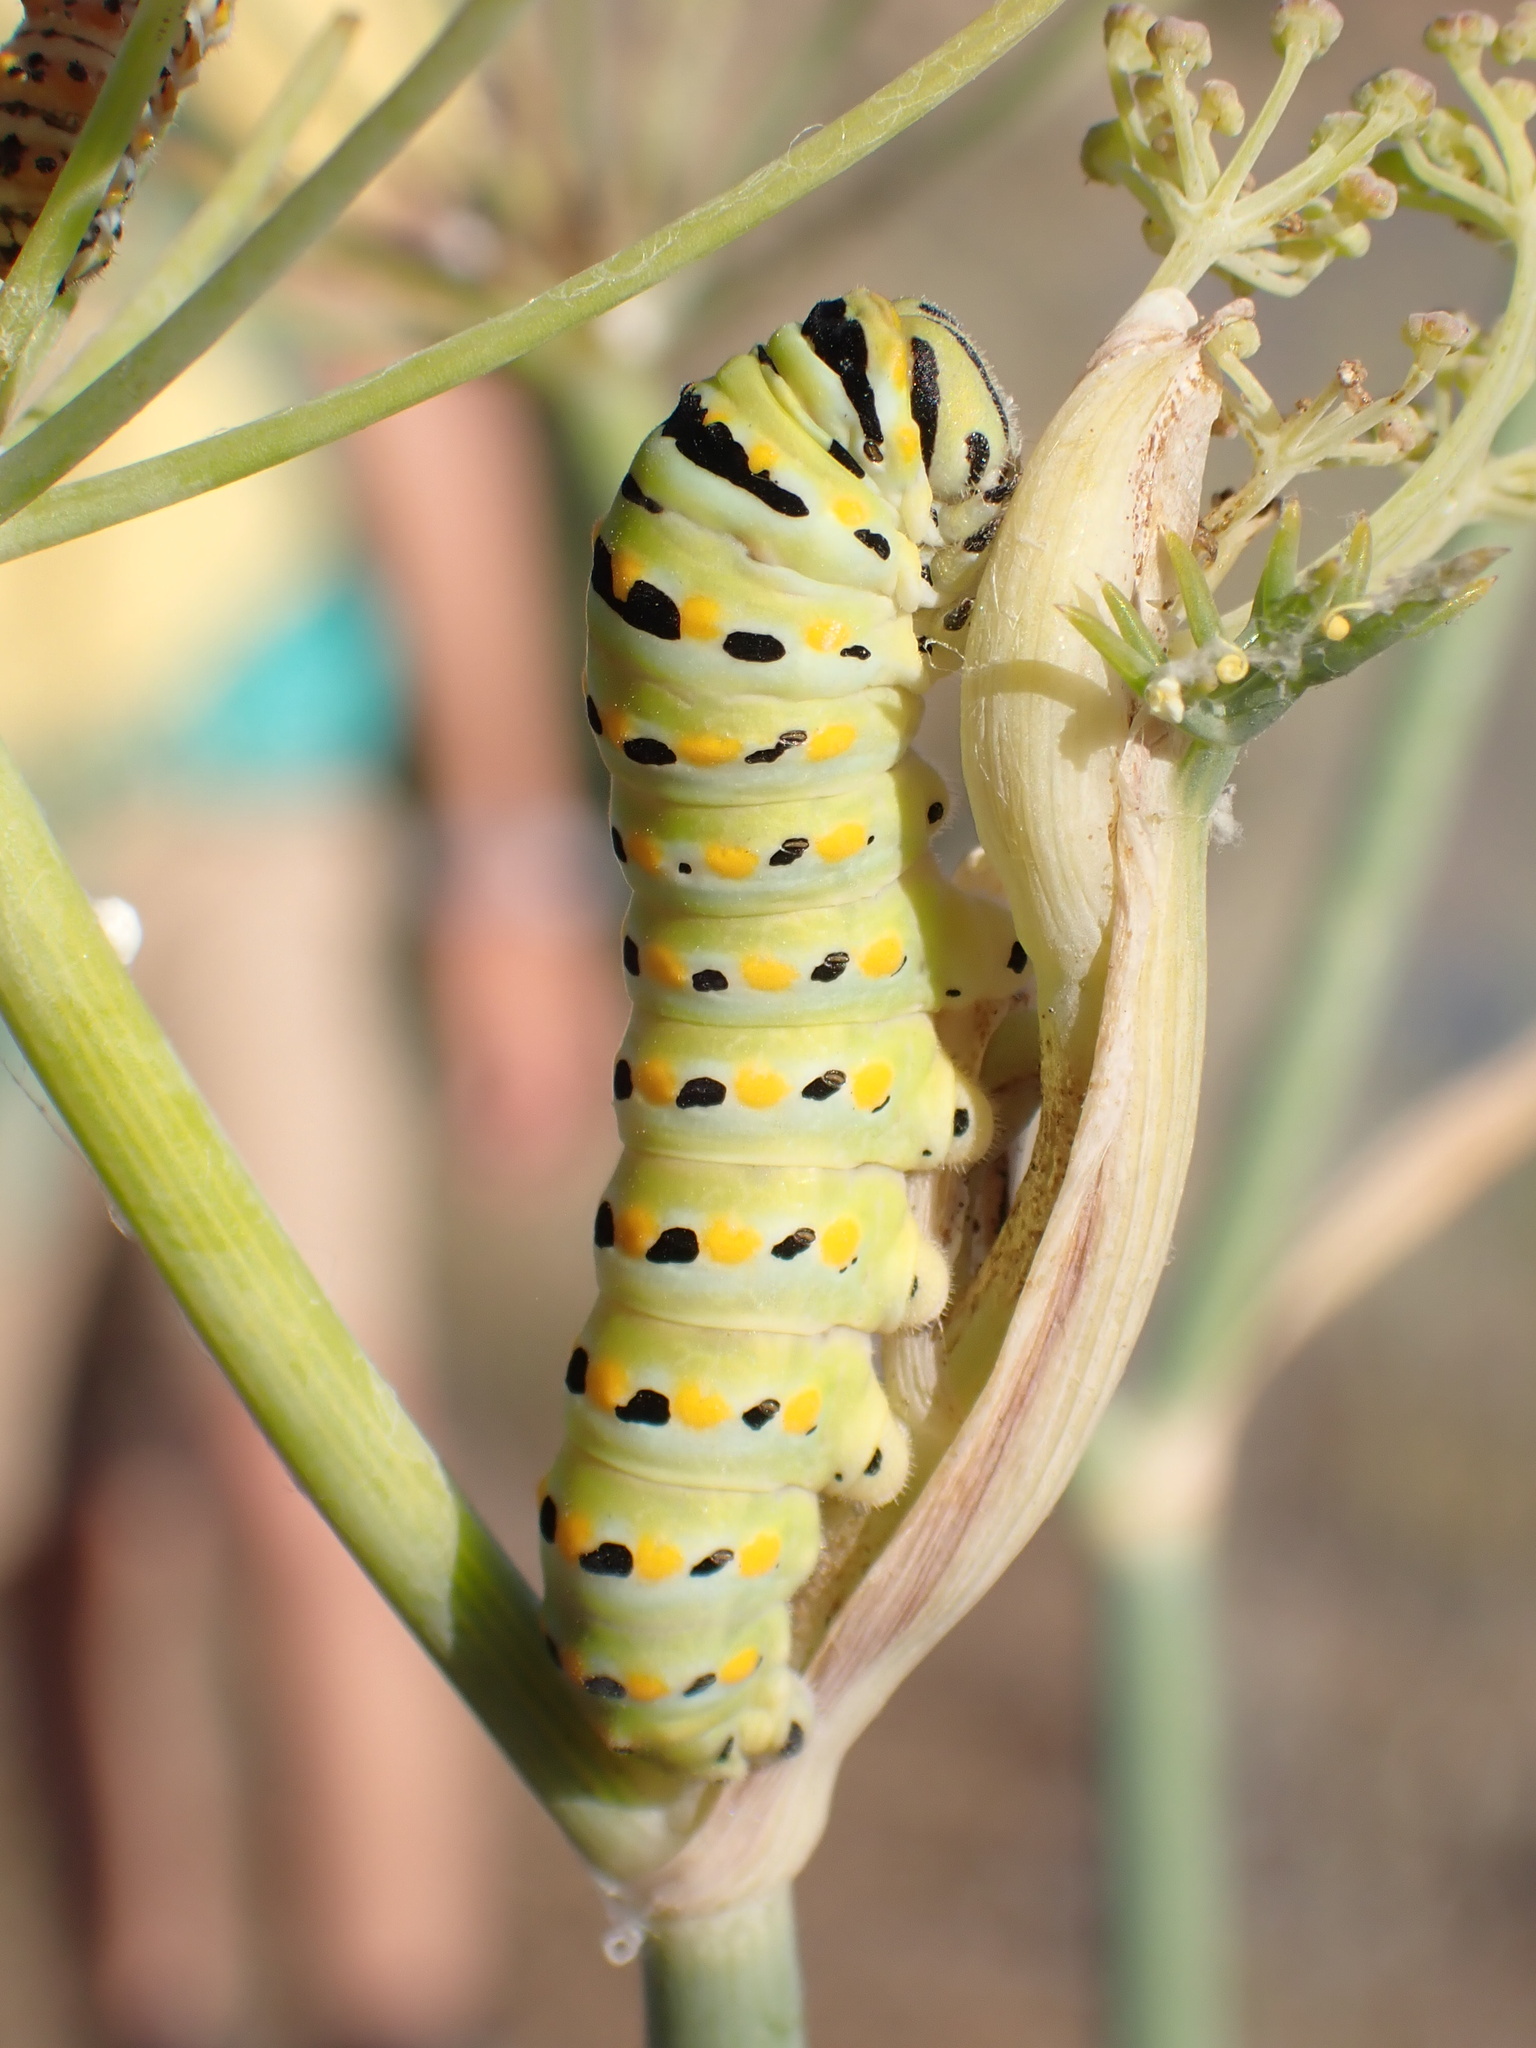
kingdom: Animalia
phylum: Arthropoda
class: Insecta
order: Lepidoptera
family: Papilionidae
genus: Papilio
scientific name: Papilio zelicaon
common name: Anise swallowtail
